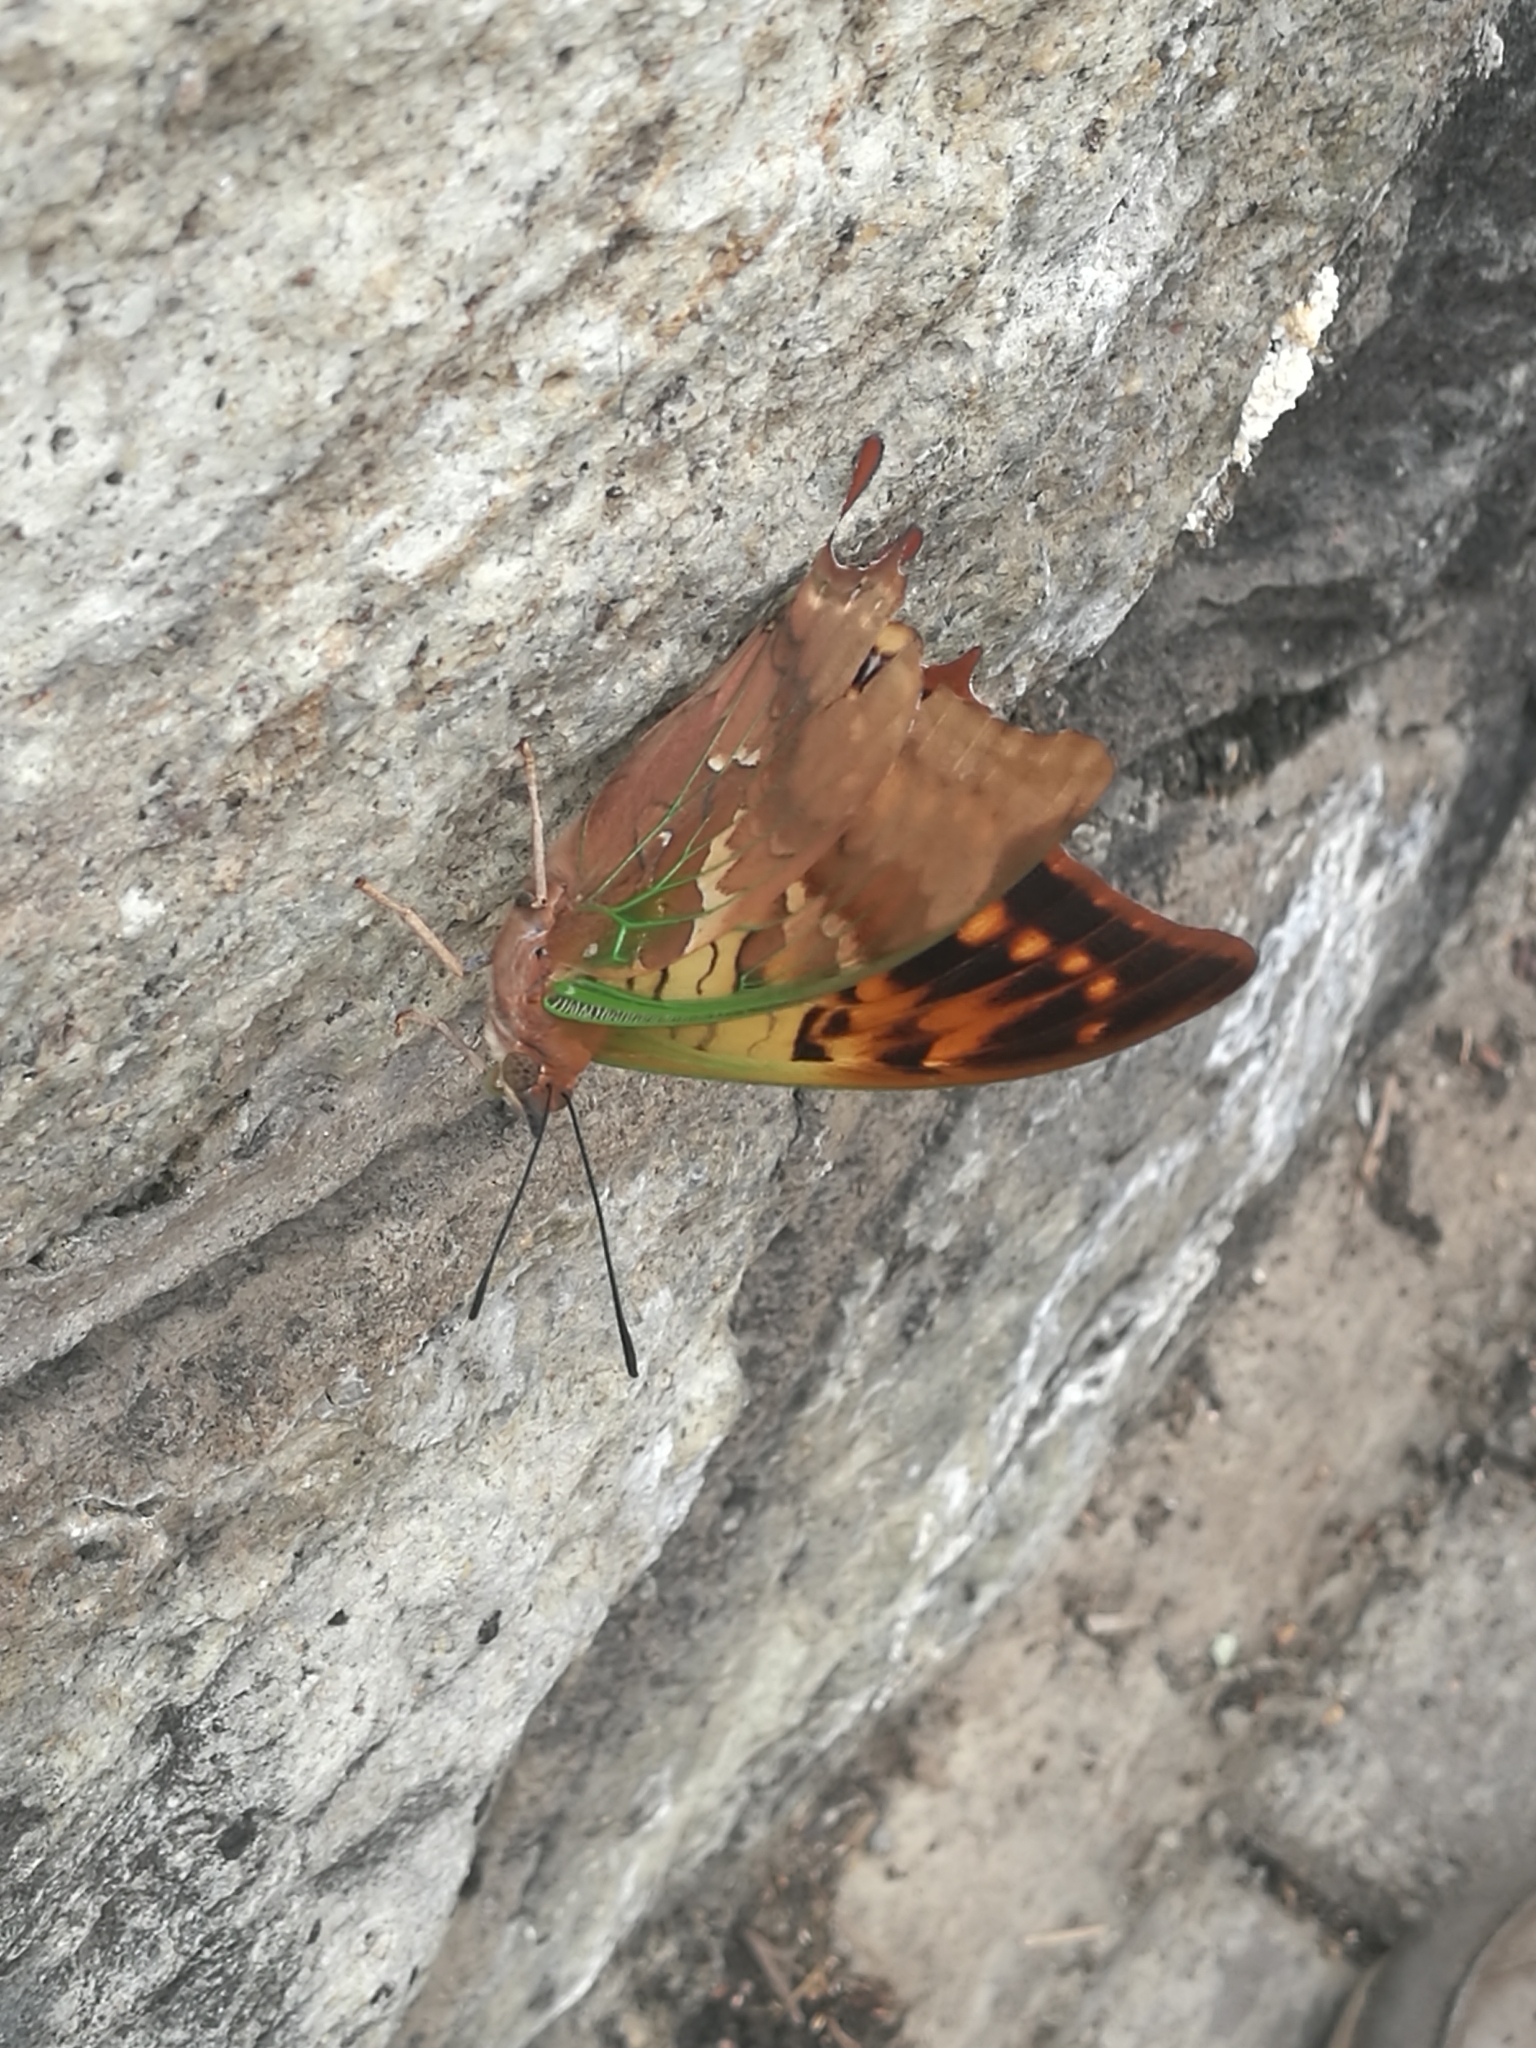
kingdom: Animalia
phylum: Arthropoda
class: Insecta
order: Lepidoptera
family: Nymphalidae
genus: Charaxes
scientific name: Charaxes candiope
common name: Green-veined charaxes
